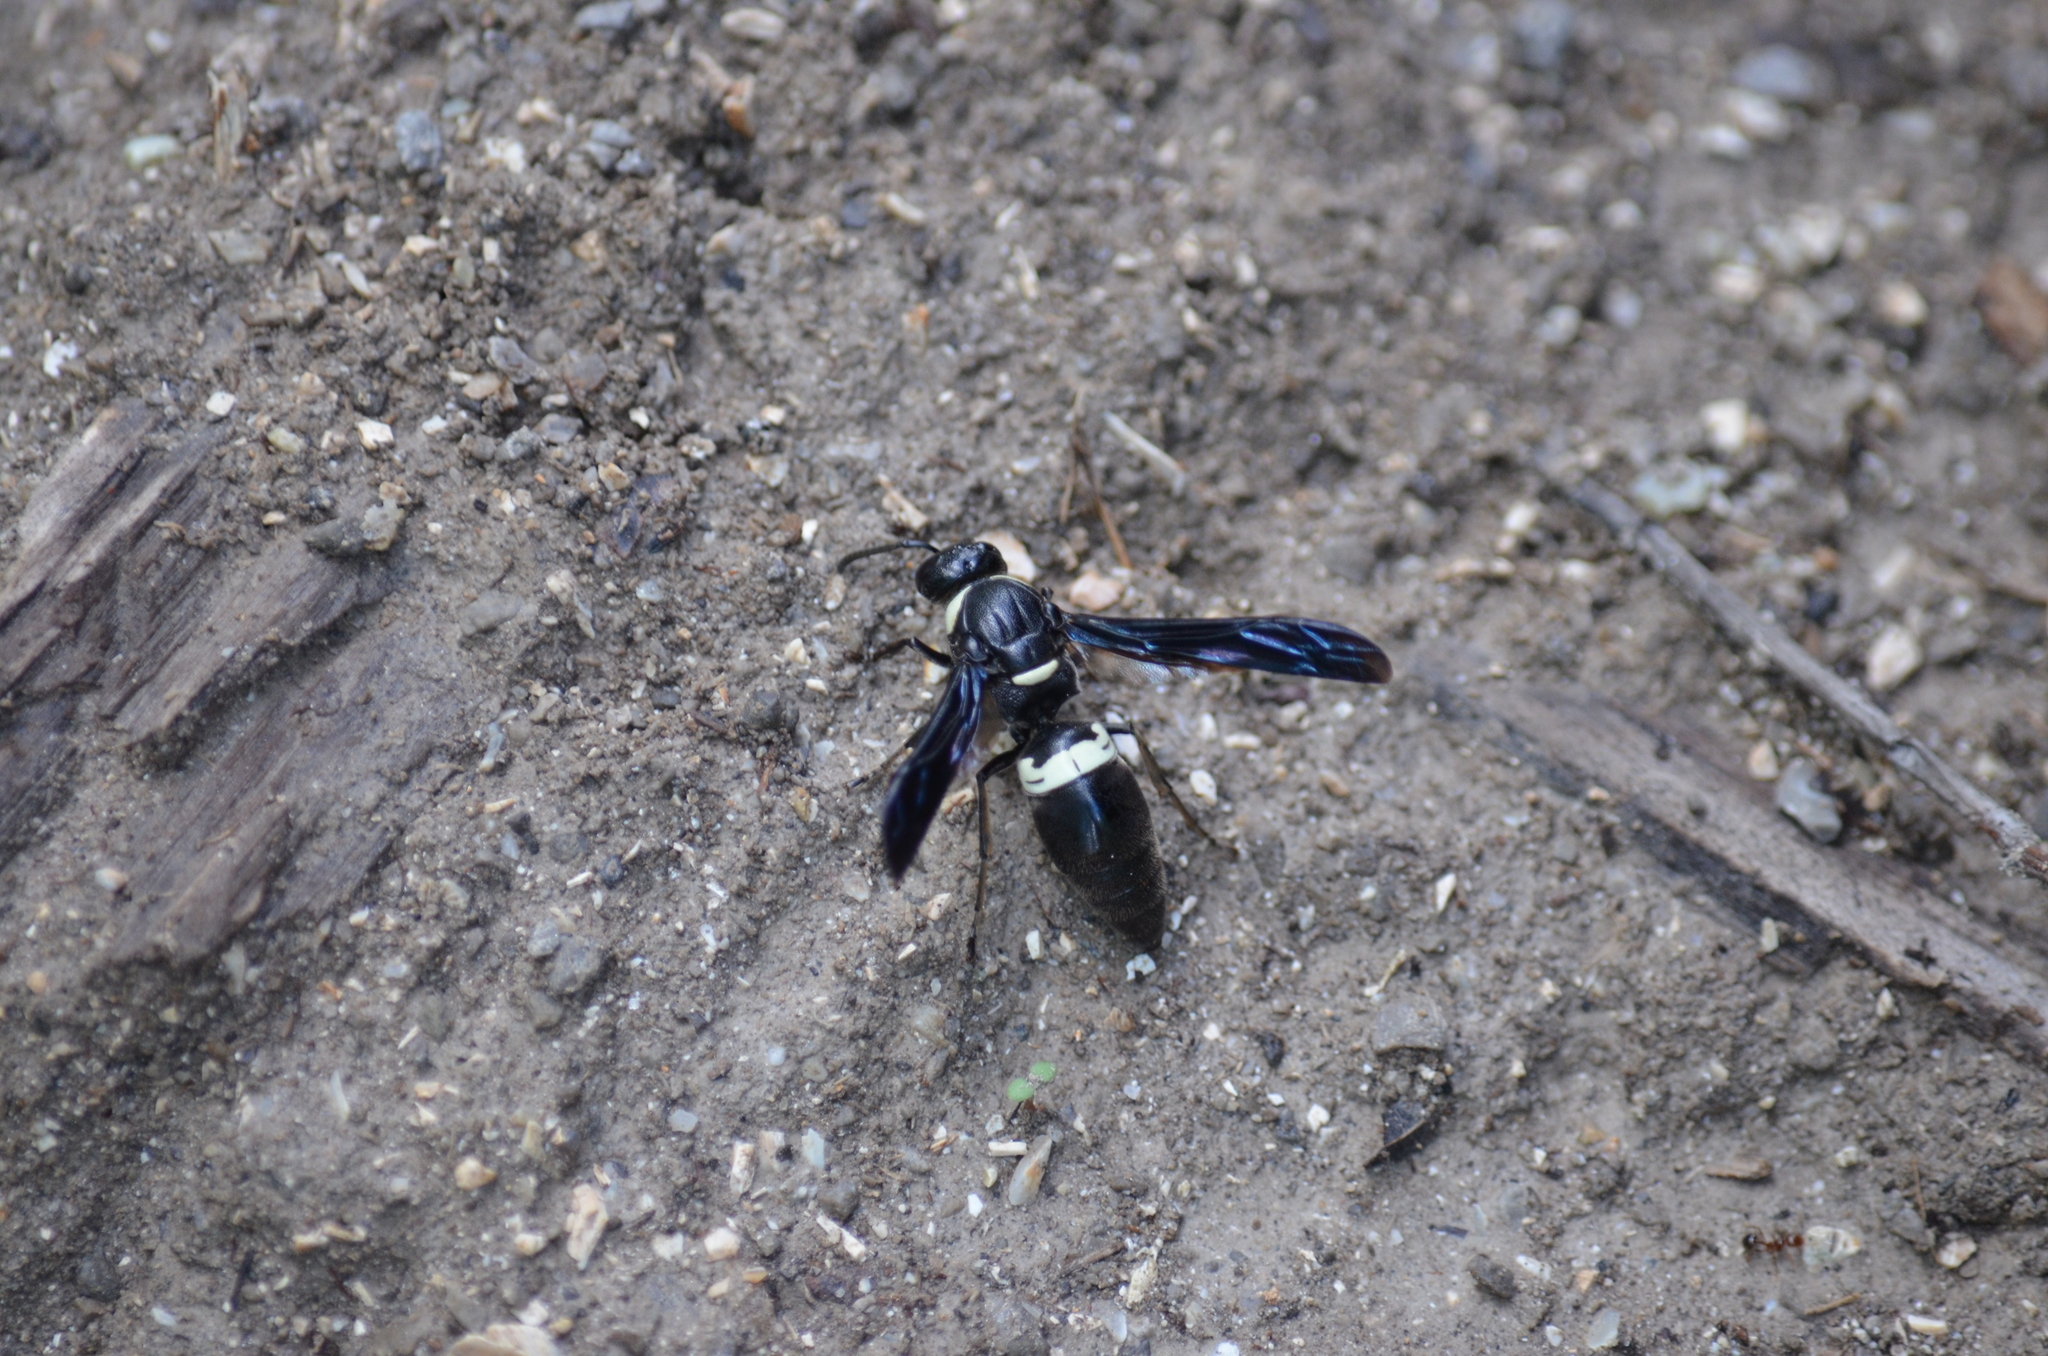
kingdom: Animalia
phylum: Arthropoda
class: Insecta
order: Hymenoptera
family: Eumenidae
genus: Monobia
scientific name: Monobia quadridens
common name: Four-toothed mason wasp
